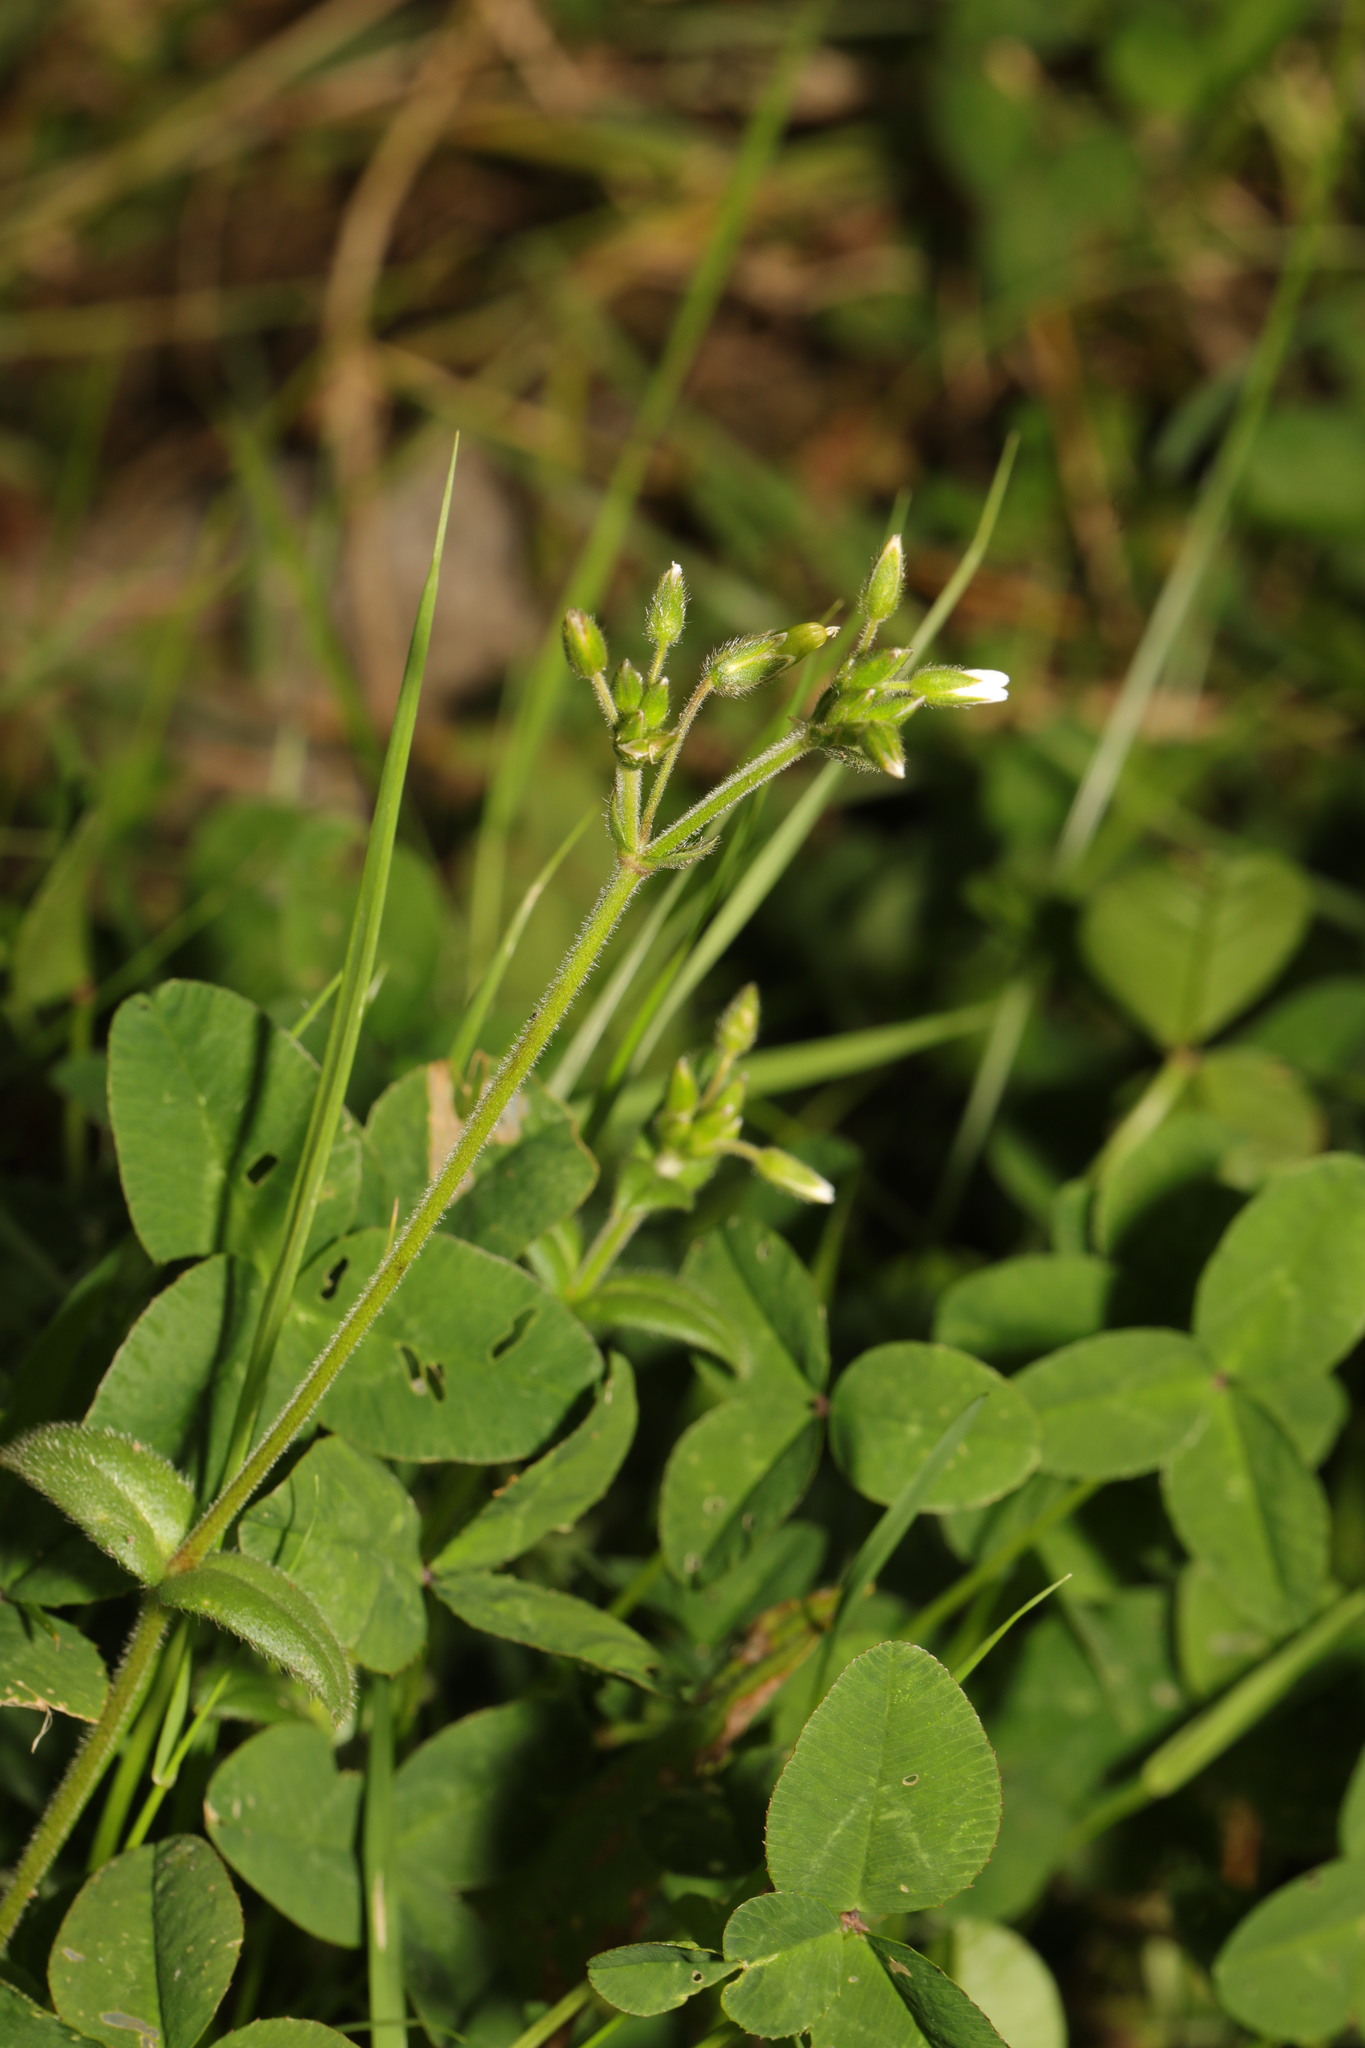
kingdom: Plantae
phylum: Tracheophyta
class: Magnoliopsida
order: Caryophyllales
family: Caryophyllaceae
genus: Cerastium
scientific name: Cerastium fontanum
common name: Common mouse-ear
